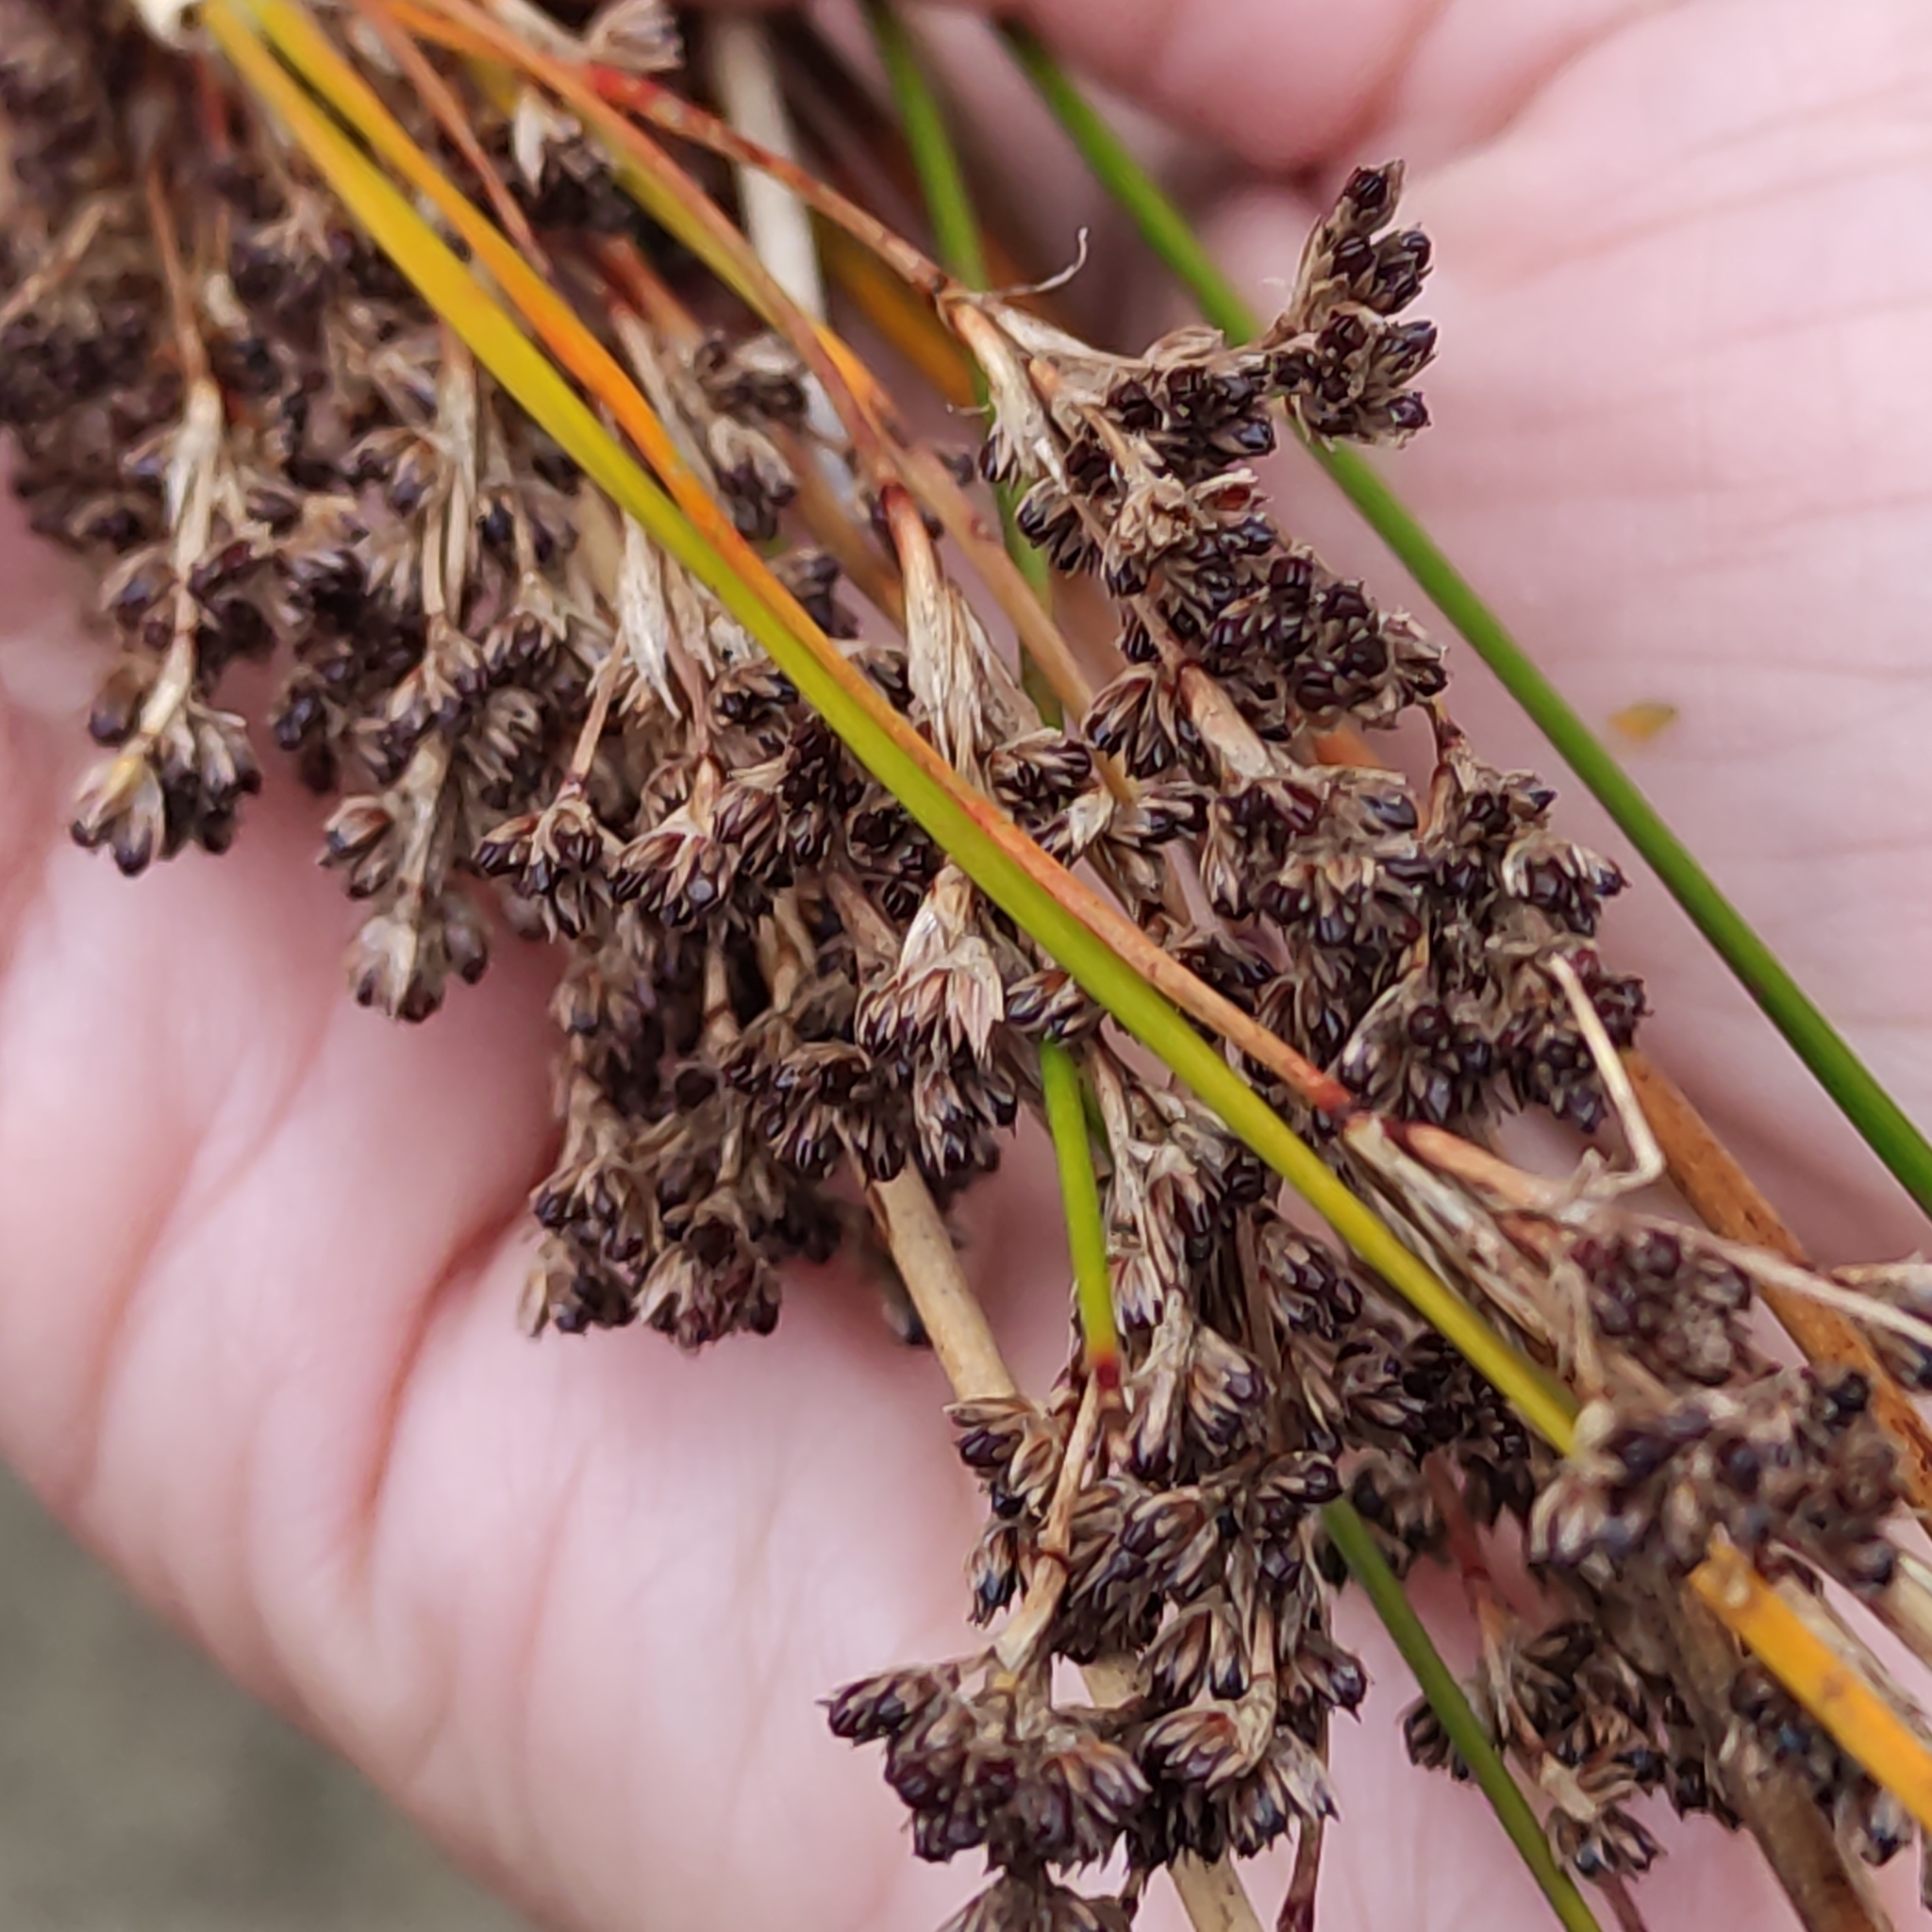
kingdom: Plantae
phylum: Tracheophyta
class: Liliopsida
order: Poales
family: Juncaceae
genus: Juncus
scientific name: Juncus kraussii
